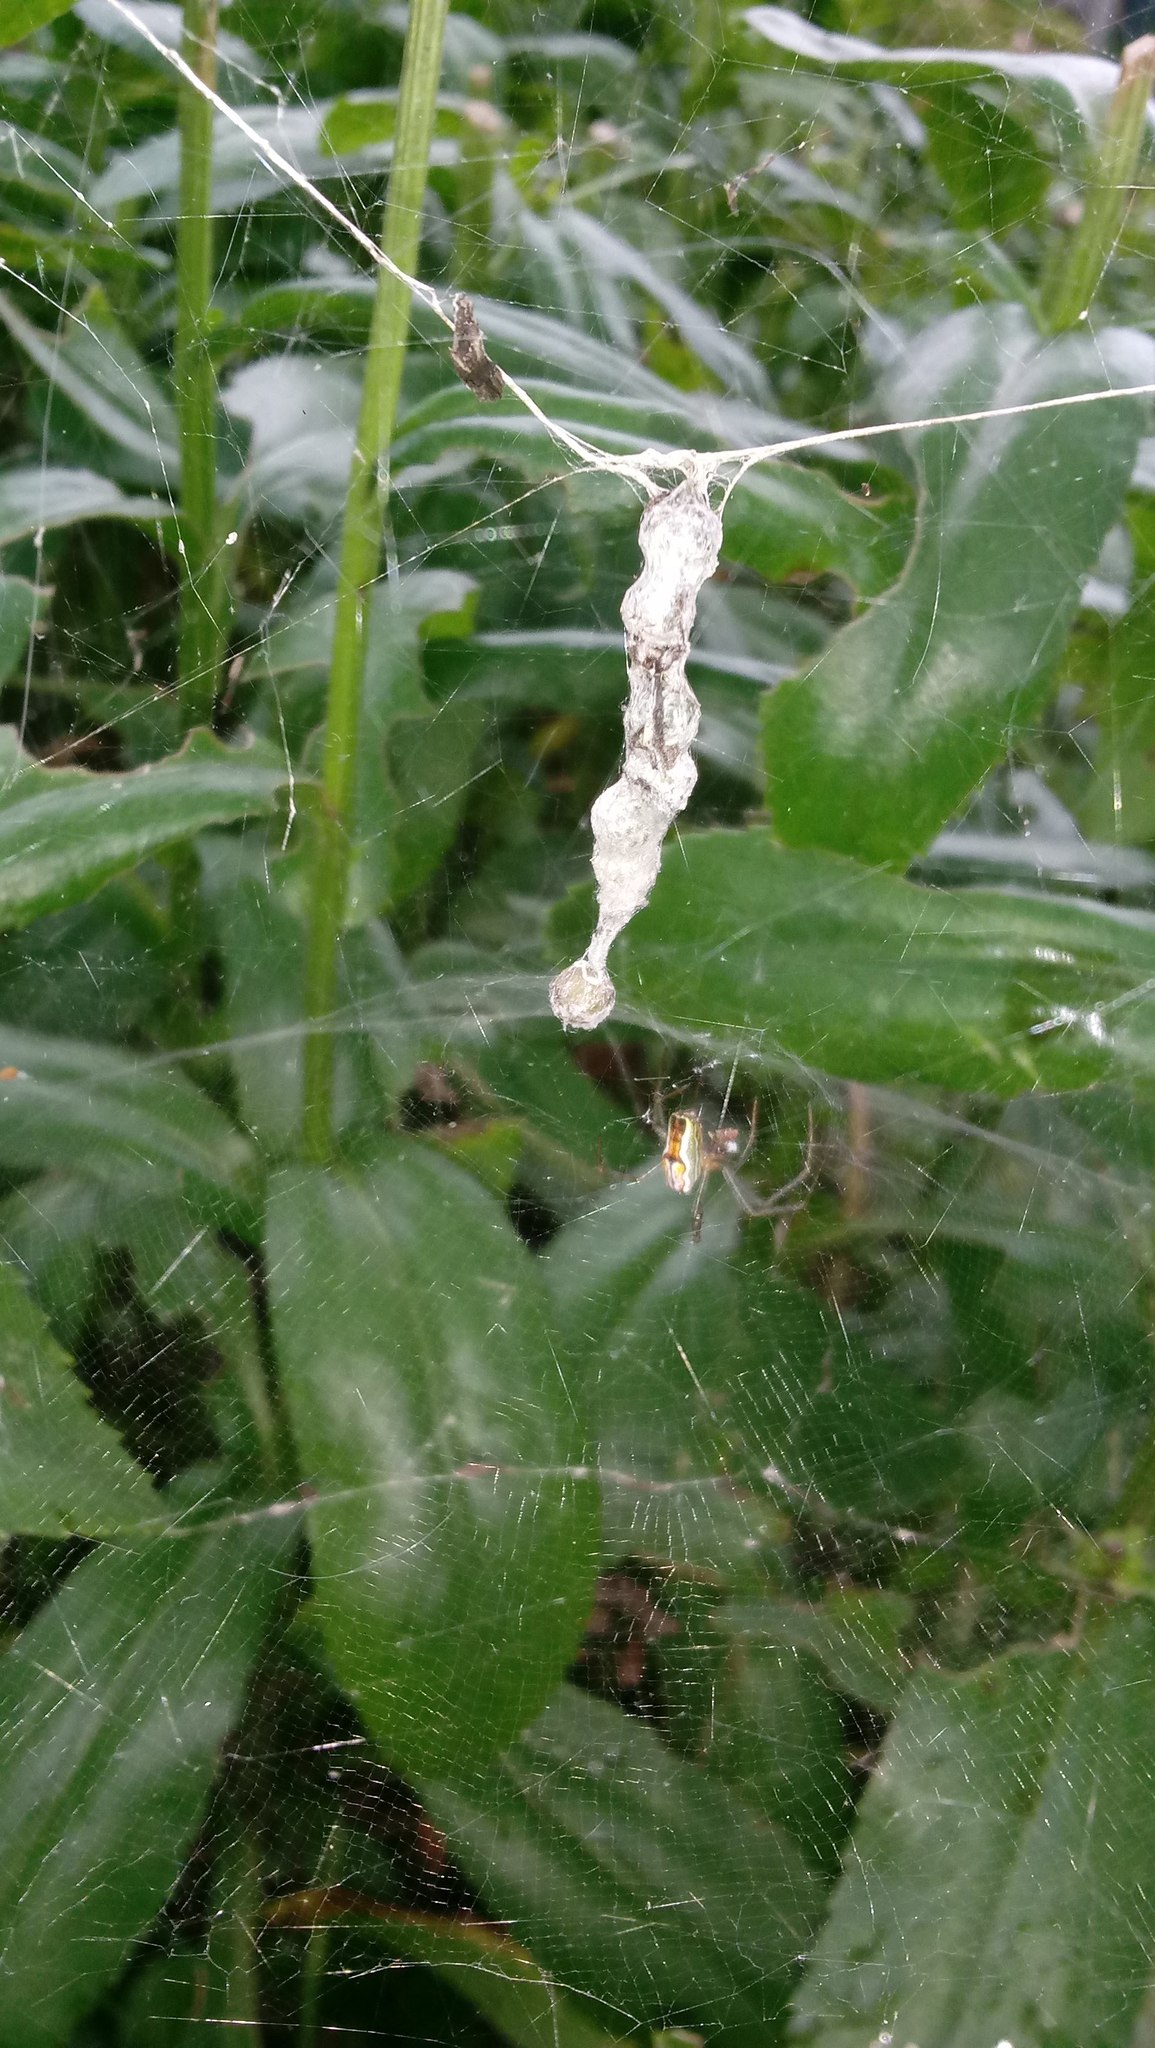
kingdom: Animalia
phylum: Arthropoda
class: Arachnida
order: Araneae
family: Araneidae
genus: Mecynogea
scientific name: Mecynogea lemniscata
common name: Orb weavers
